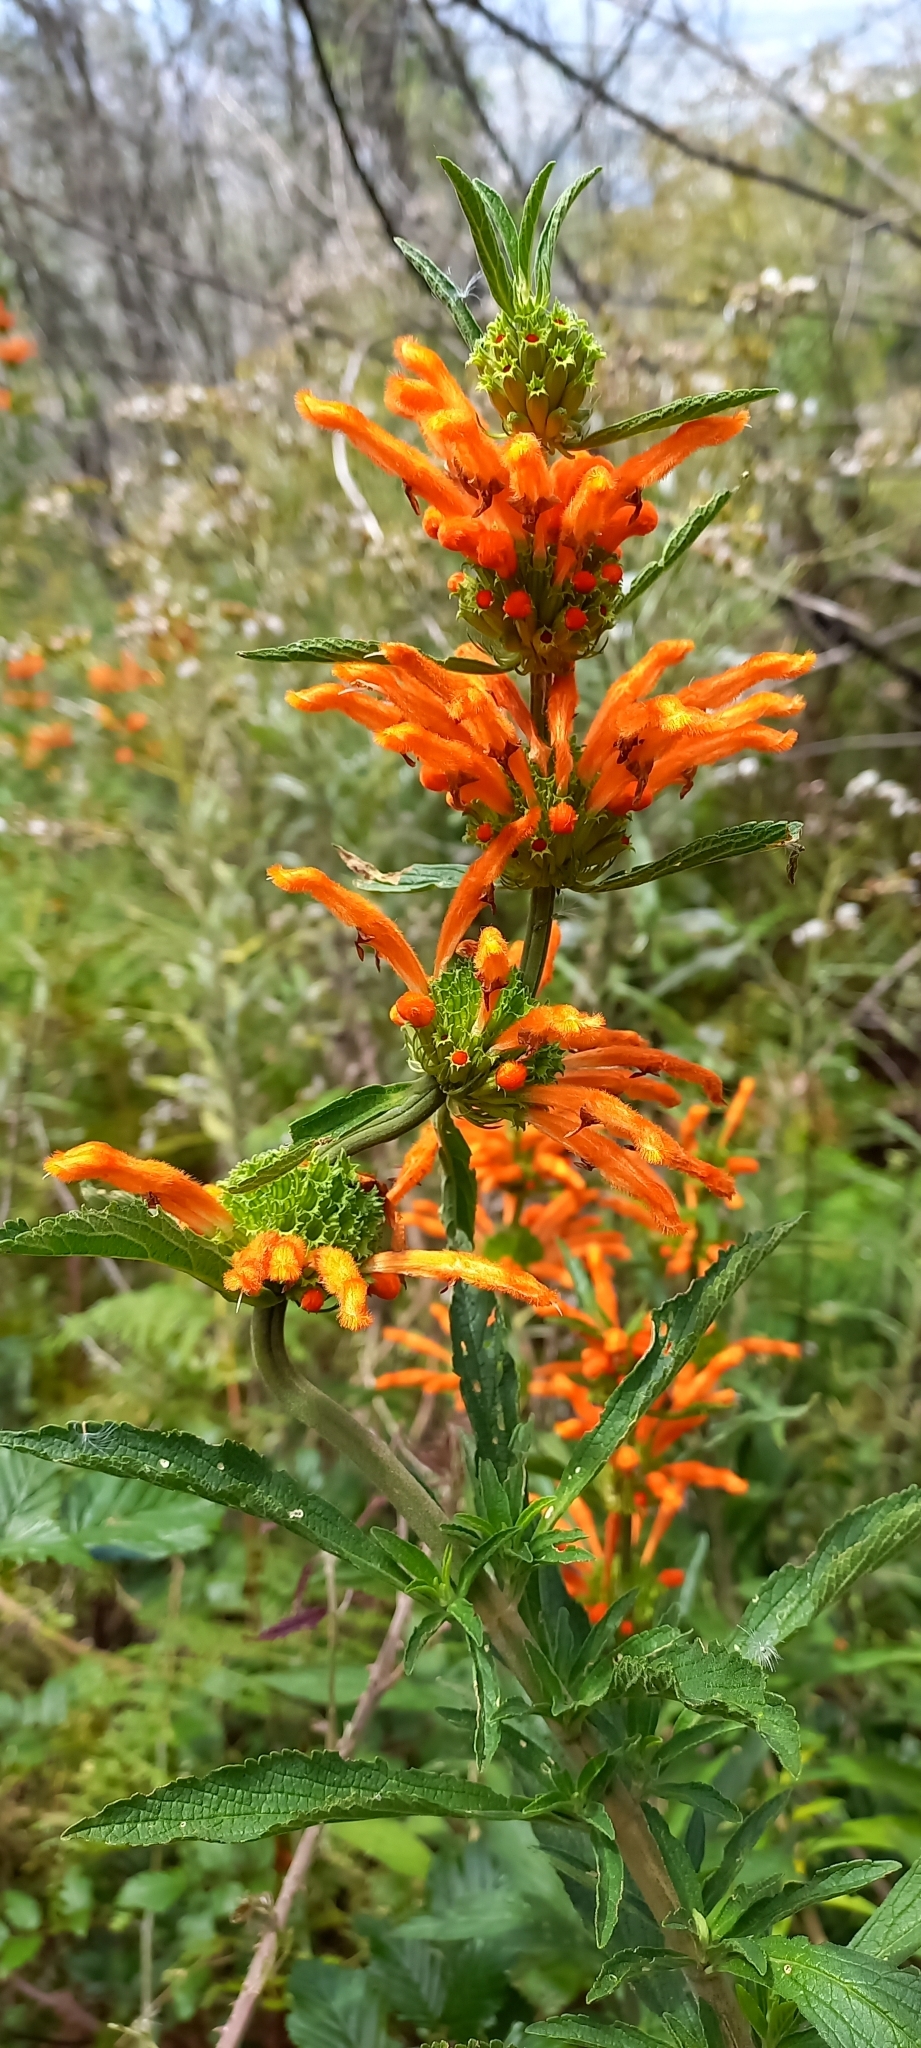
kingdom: Plantae
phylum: Tracheophyta
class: Magnoliopsida
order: Lamiales
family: Lamiaceae
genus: Leonotis
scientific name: Leonotis leonurus
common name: Lion's ear
